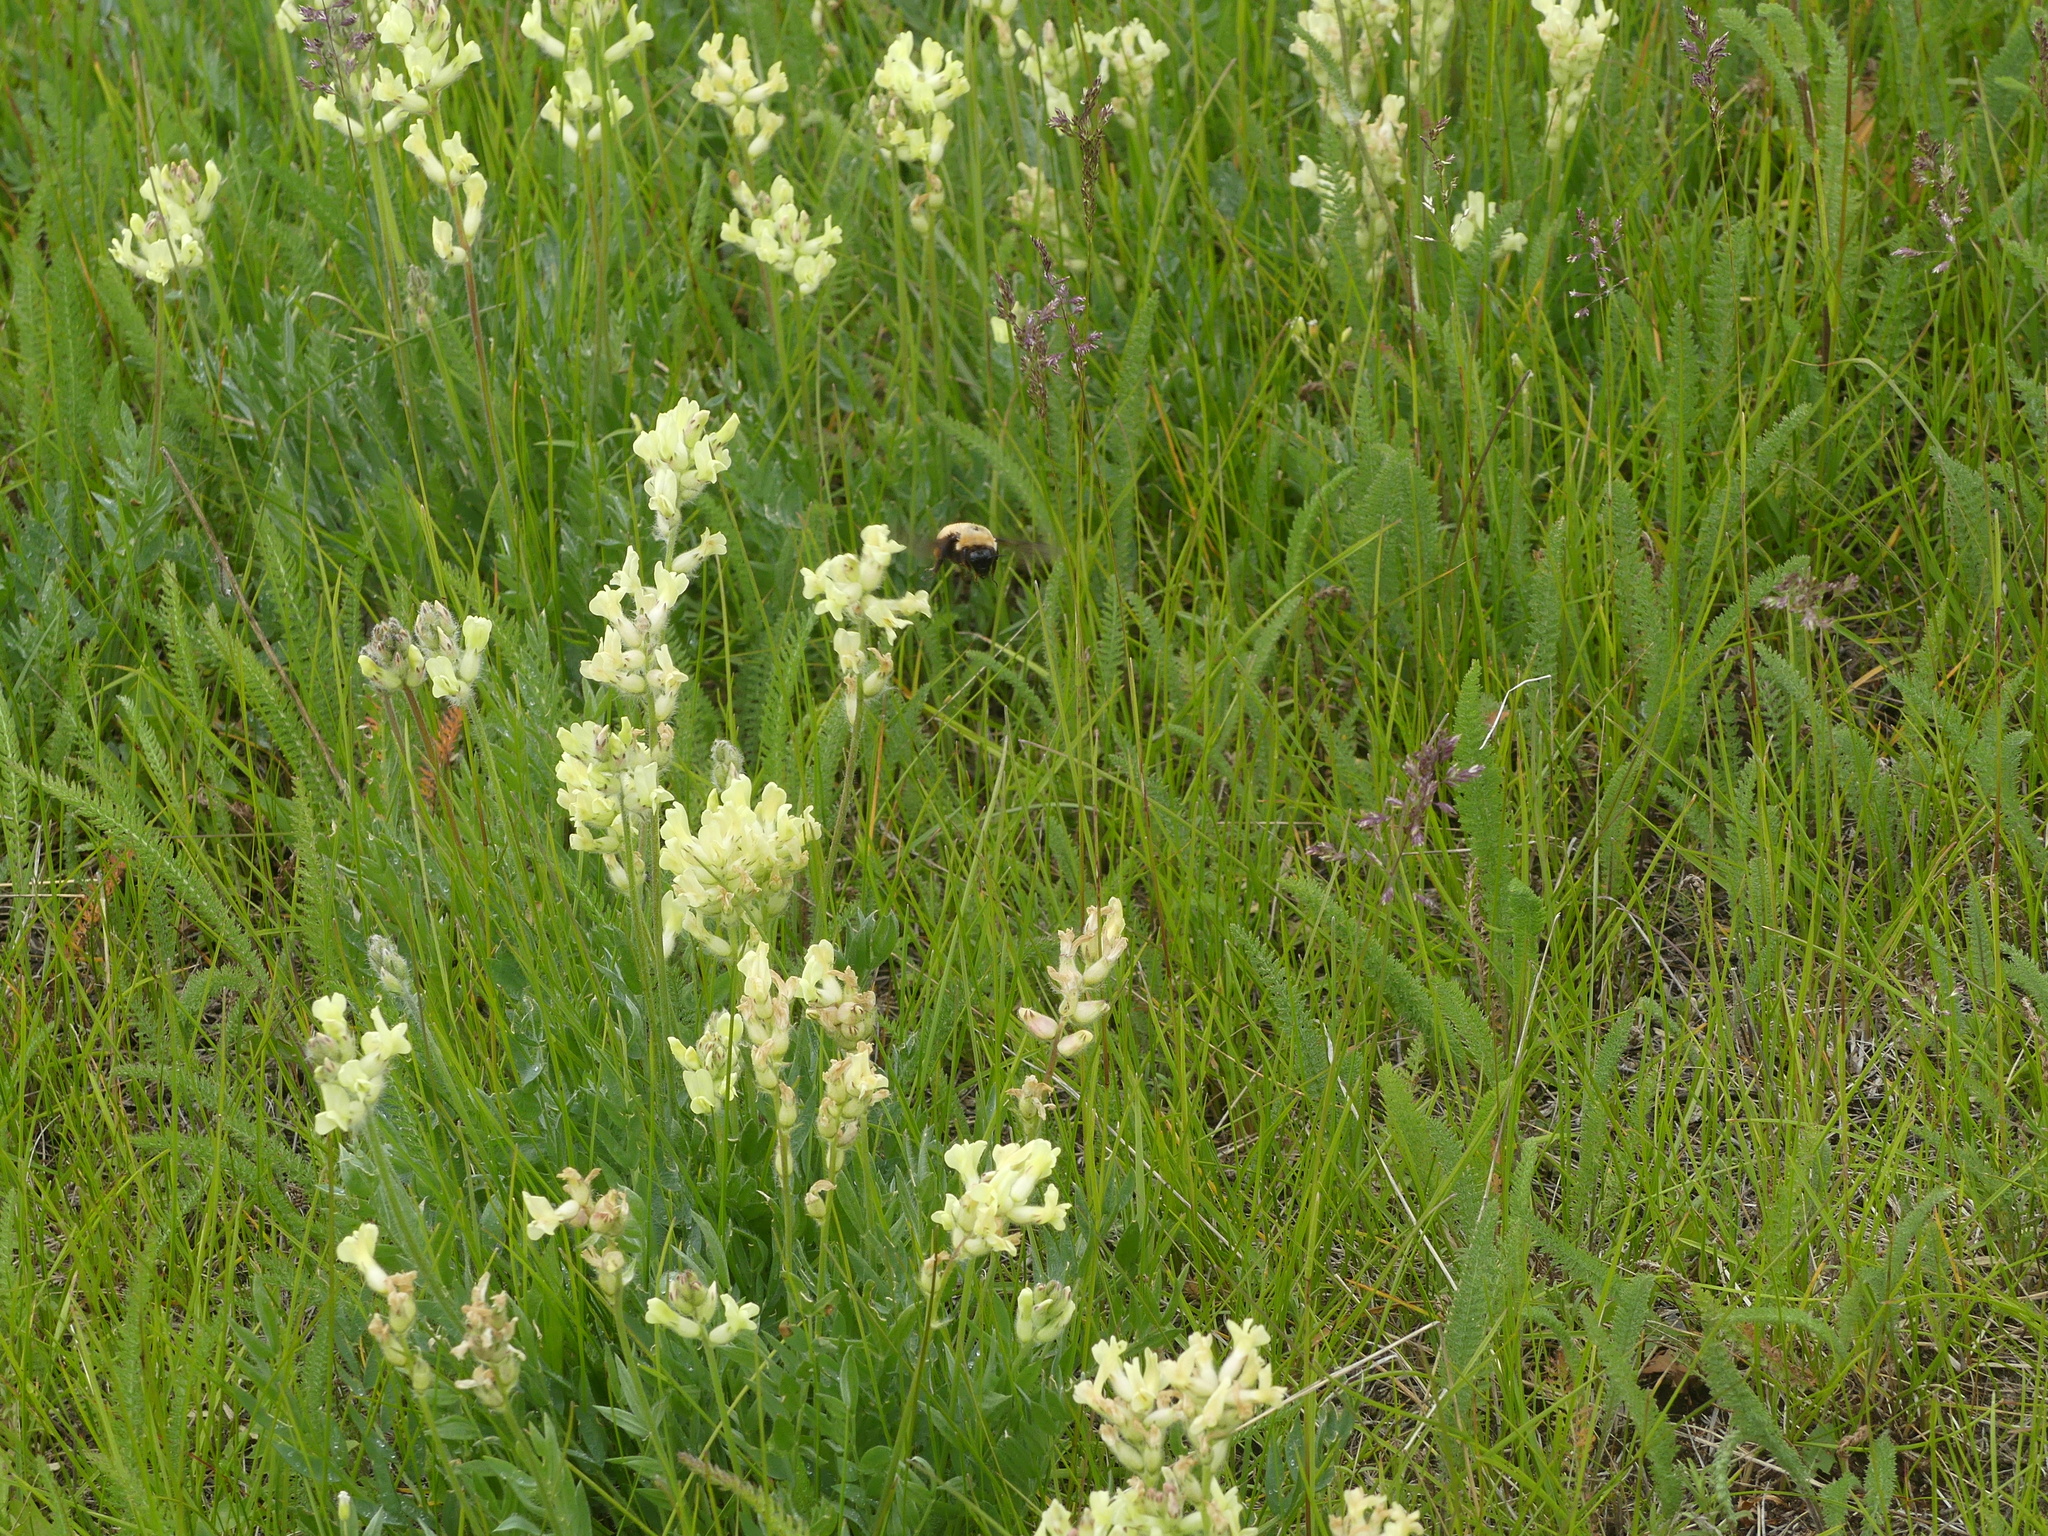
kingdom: Animalia
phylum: Arthropoda
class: Insecta
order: Hymenoptera
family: Apidae
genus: Bombus
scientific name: Bombus nevadensis
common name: Nevada bumble bee
